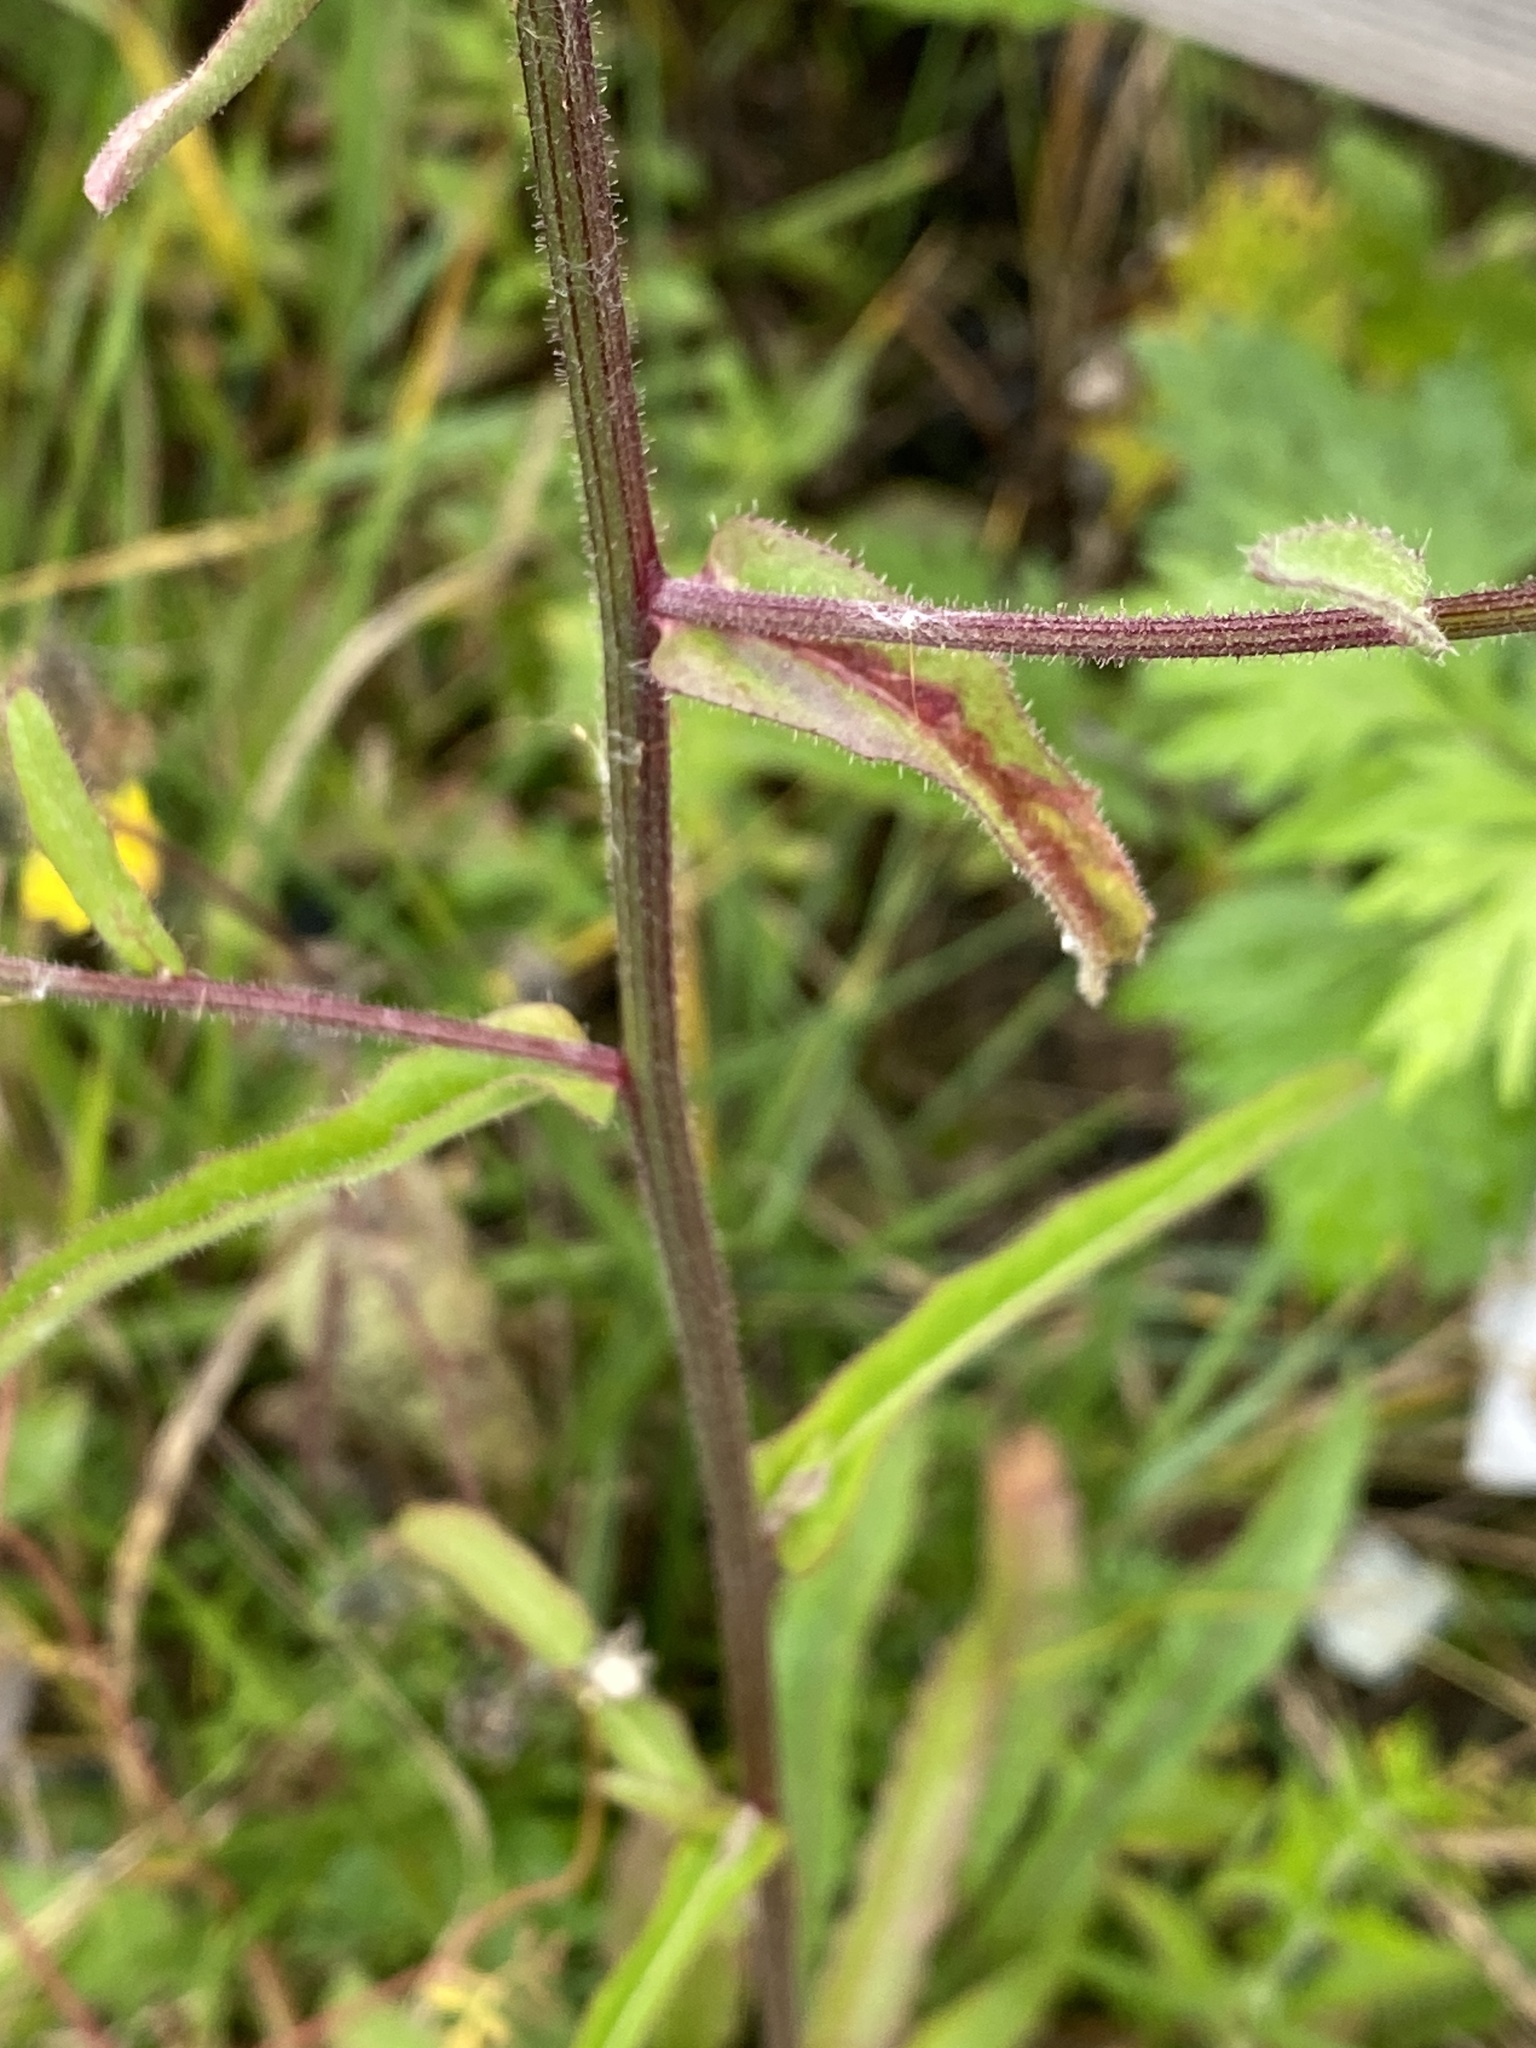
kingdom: Plantae
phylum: Tracheophyta
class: Magnoliopsida
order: Asterales
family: Asteraceae
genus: Picris
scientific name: Picris hieracioides
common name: Hawkweed oxtongue
